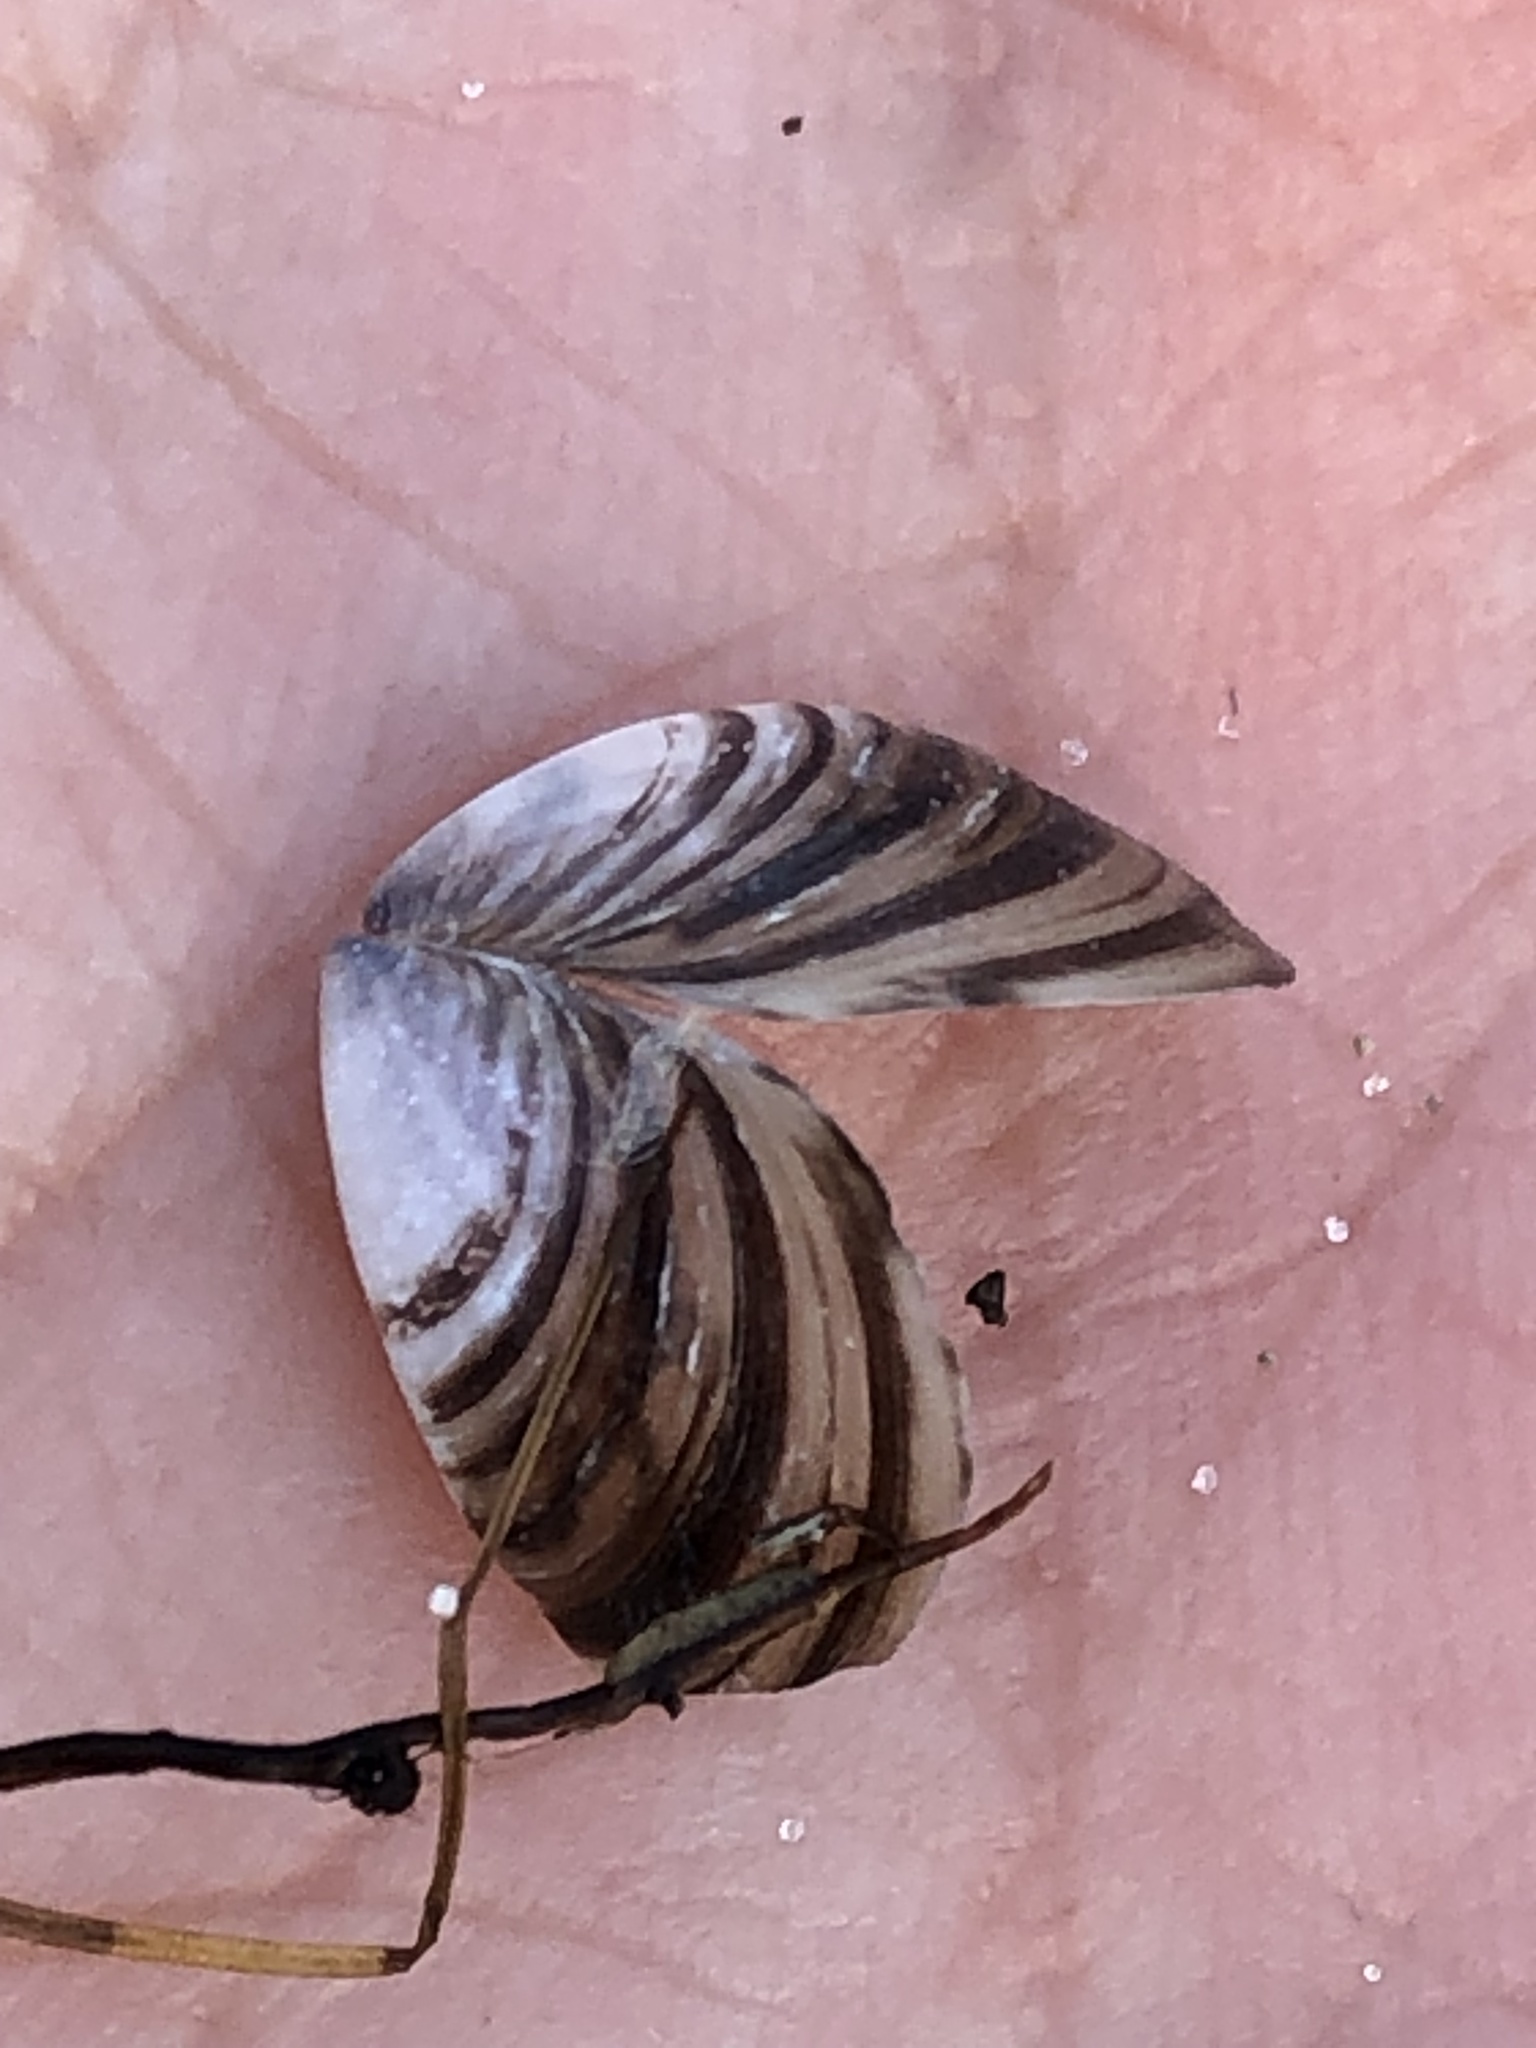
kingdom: Animalia
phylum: Mollusca
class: Bivalvia
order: Myida
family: Dreissenidae
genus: Dreissena
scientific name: Dreissena polymorpha
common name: Zebra mussel
